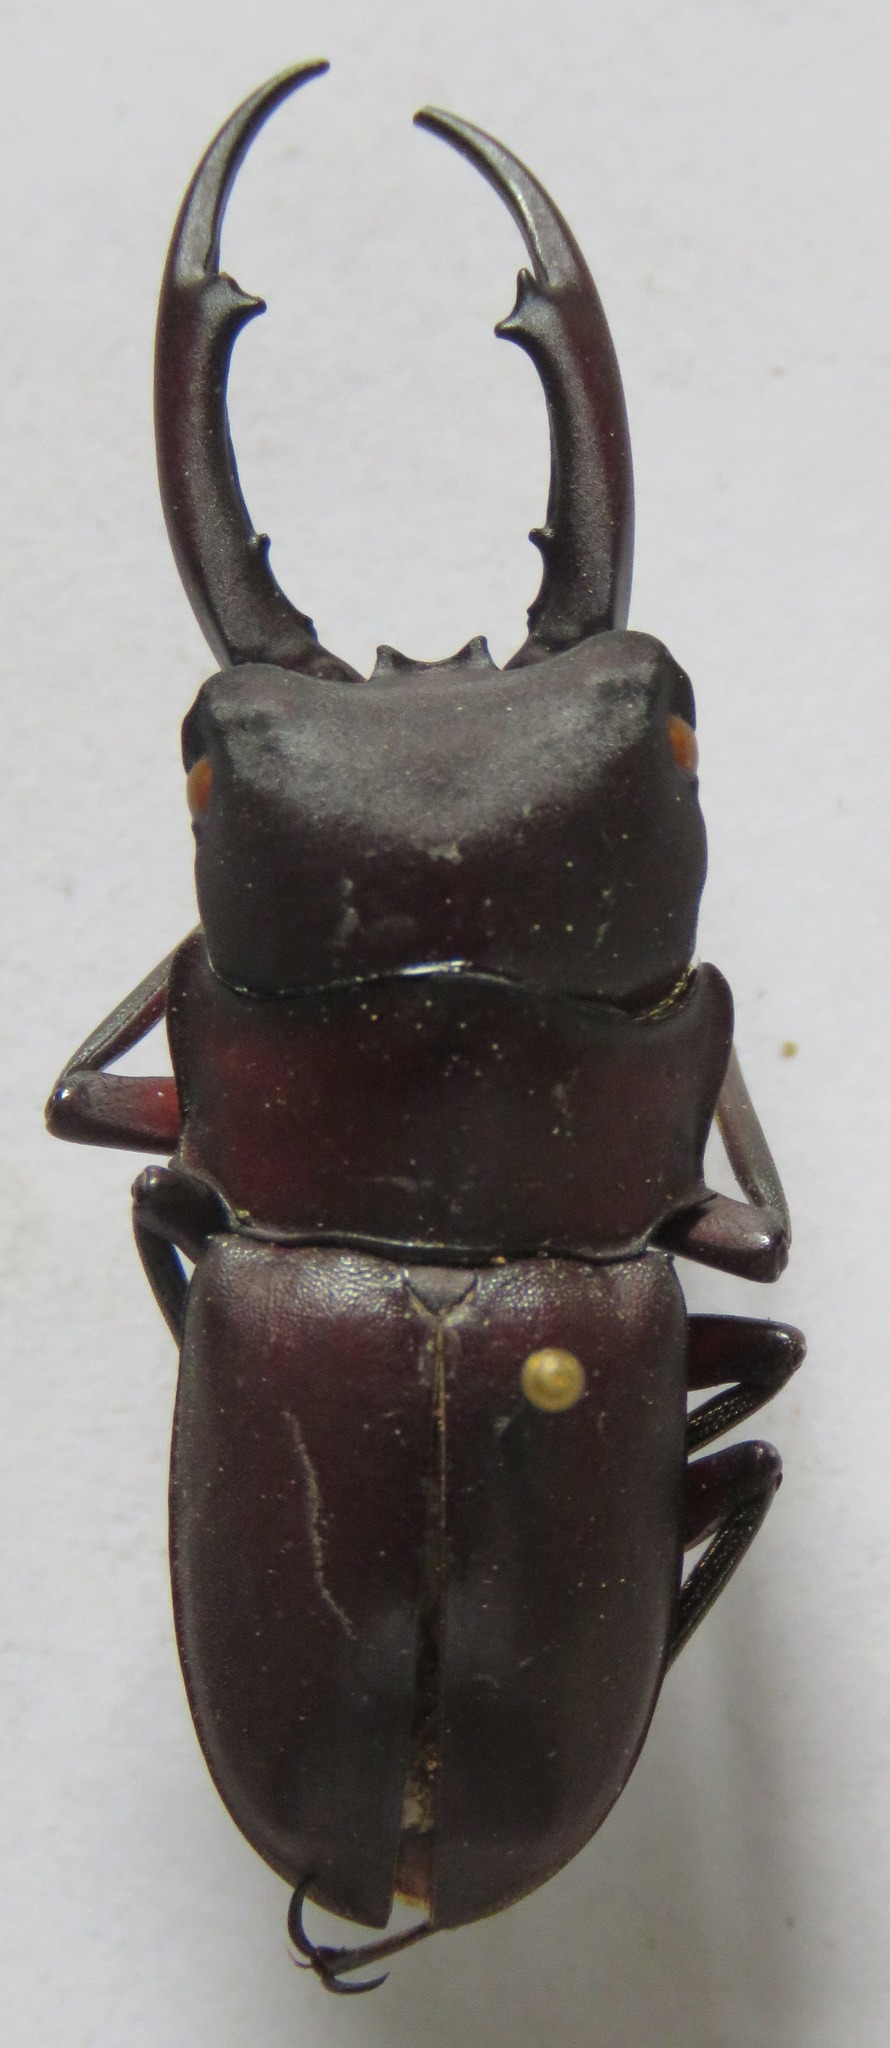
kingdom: Animalia
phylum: Arthropoda
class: Insecta
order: Coleoptera
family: Lucanidae
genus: Prosopocoilus
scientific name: Prosopocoilus francisi
